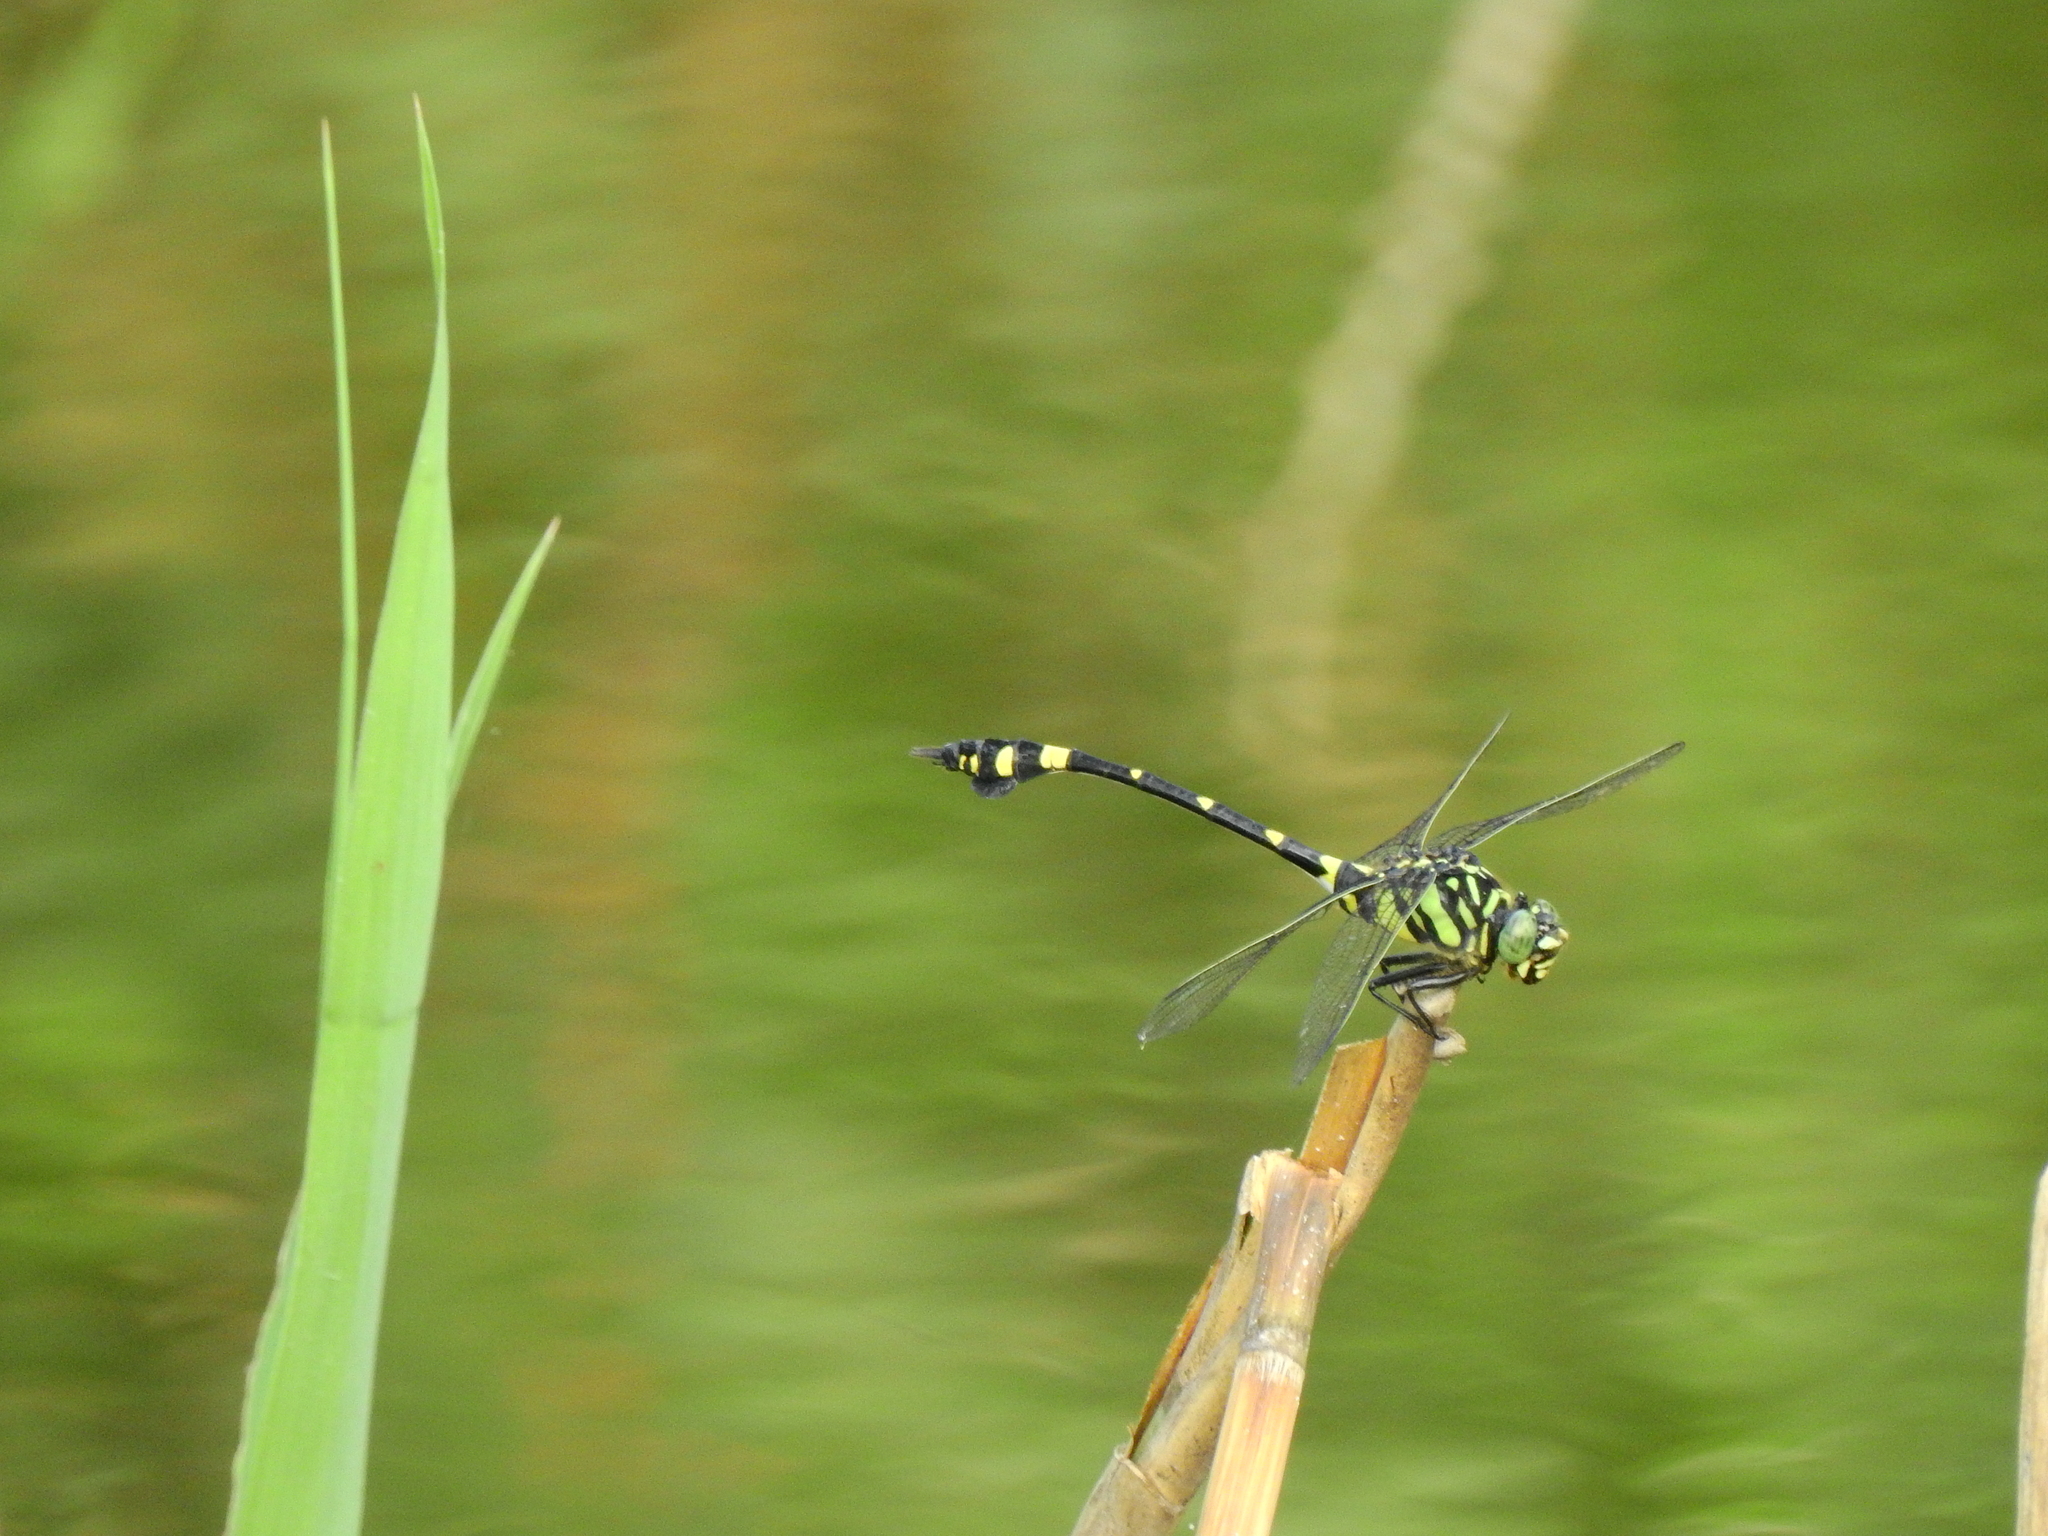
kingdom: Animalia
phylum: Arthropoda
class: Insecta
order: Odonata
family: Gomphidae
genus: Ictinogomphus
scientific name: Ictinogomphus rapax
